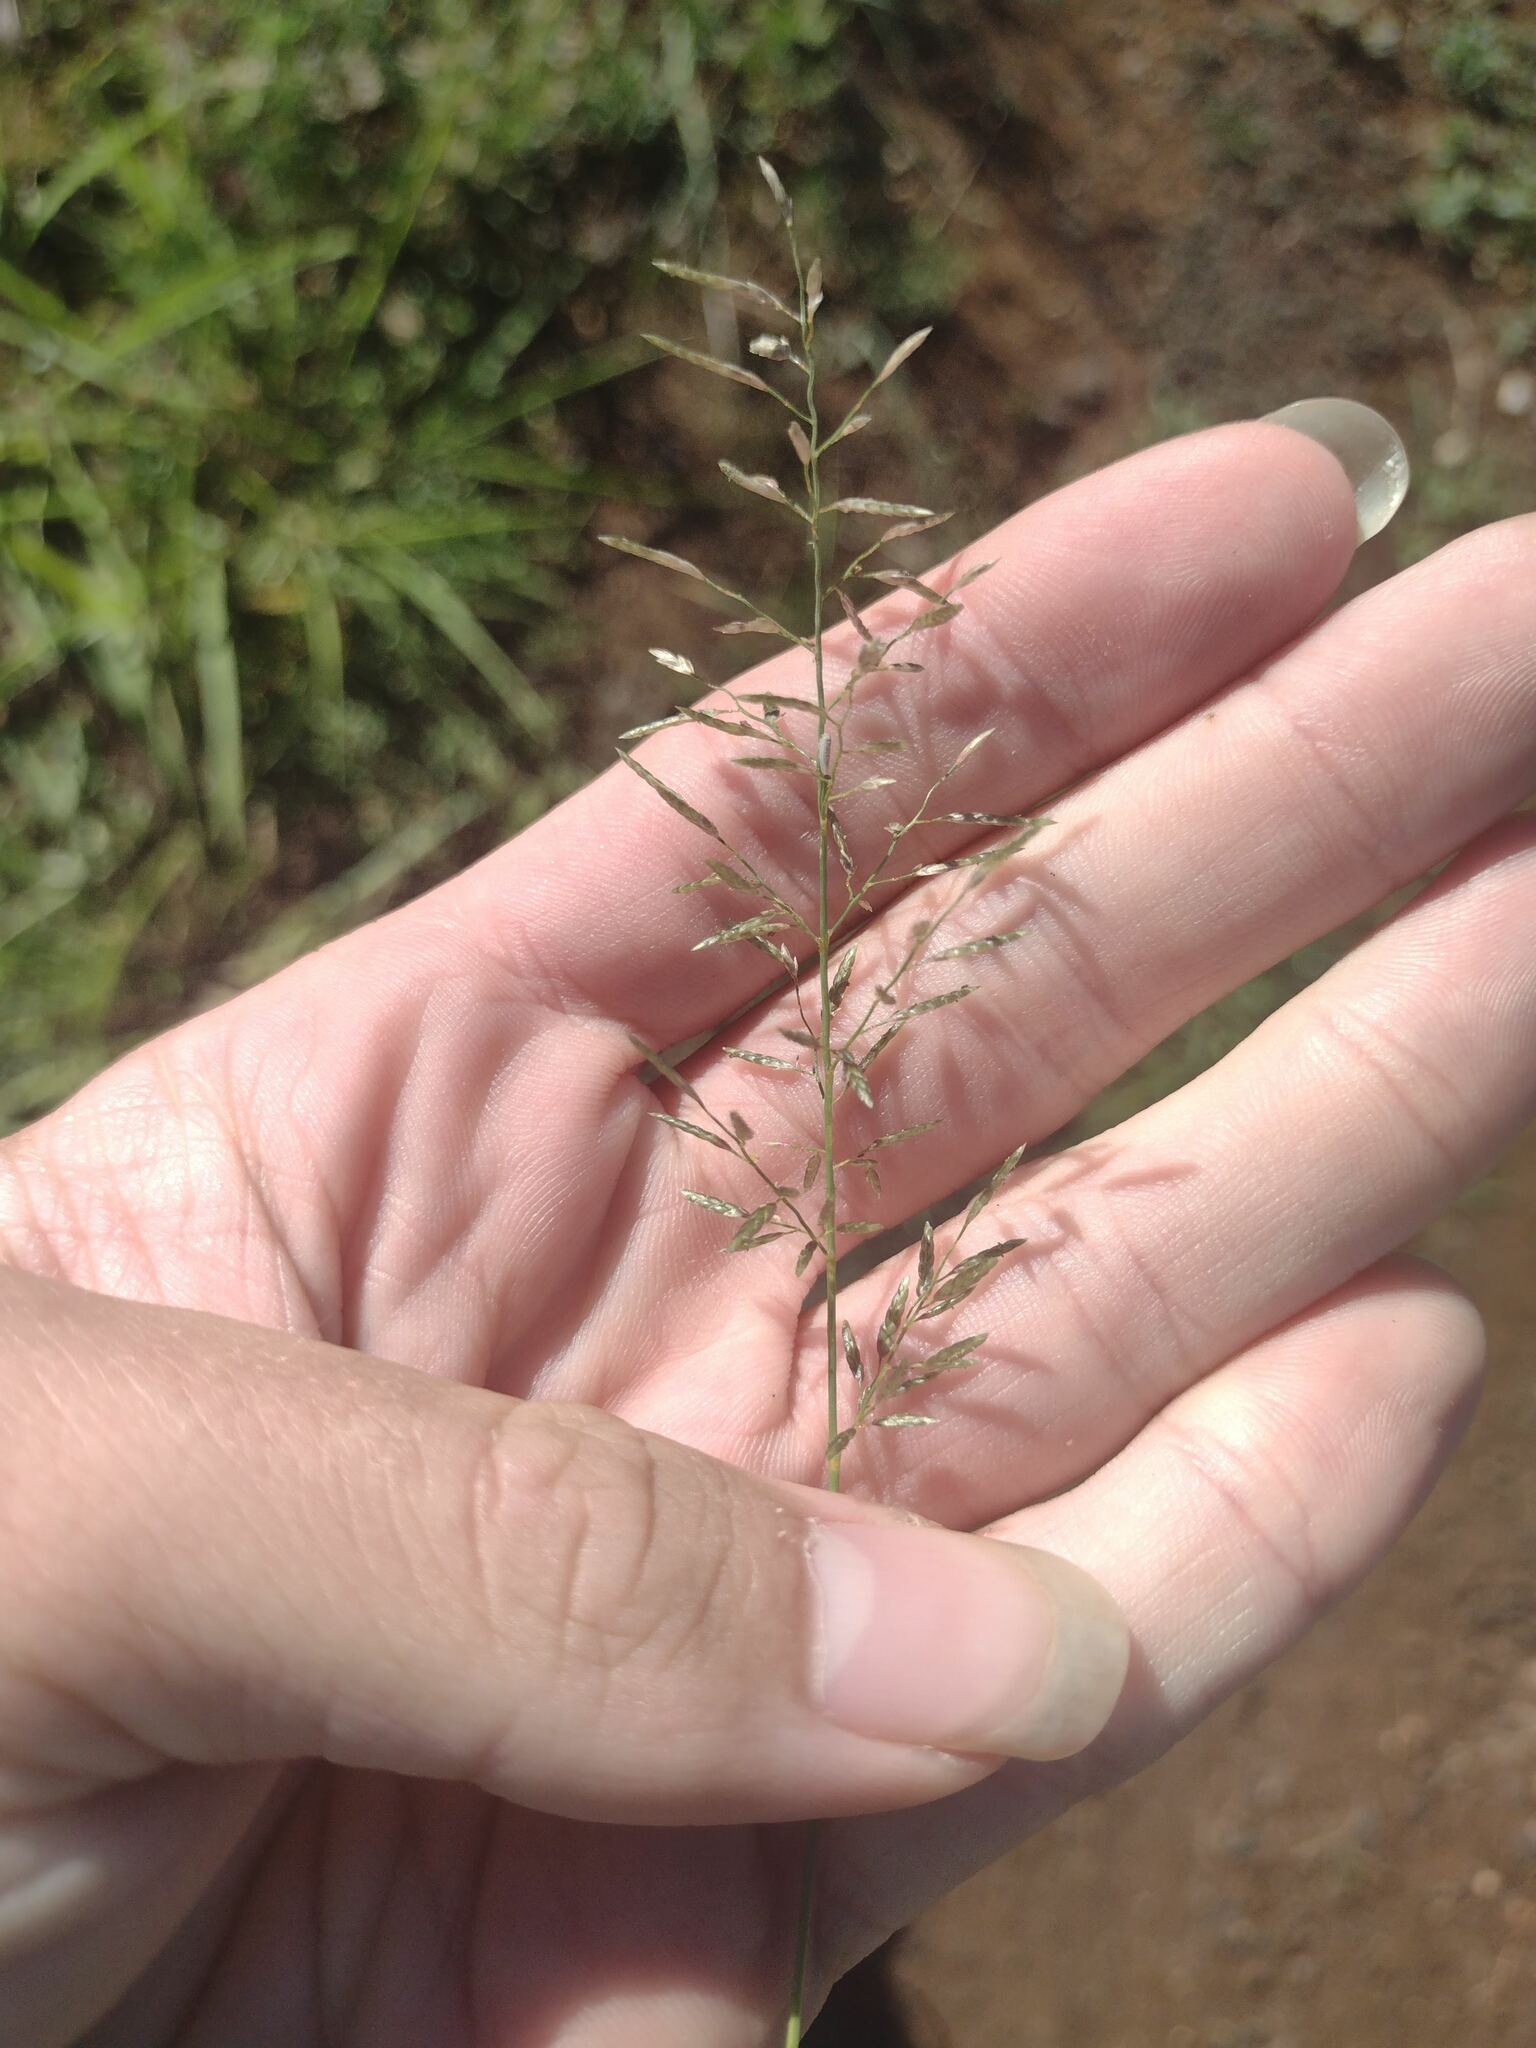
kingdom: Plantae
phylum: Tracheophyta
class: Liliopsida
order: Poales
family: Poaceae
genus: Eragrostis
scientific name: Eragrostis barrelieri
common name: Mediterranean lovegrass
